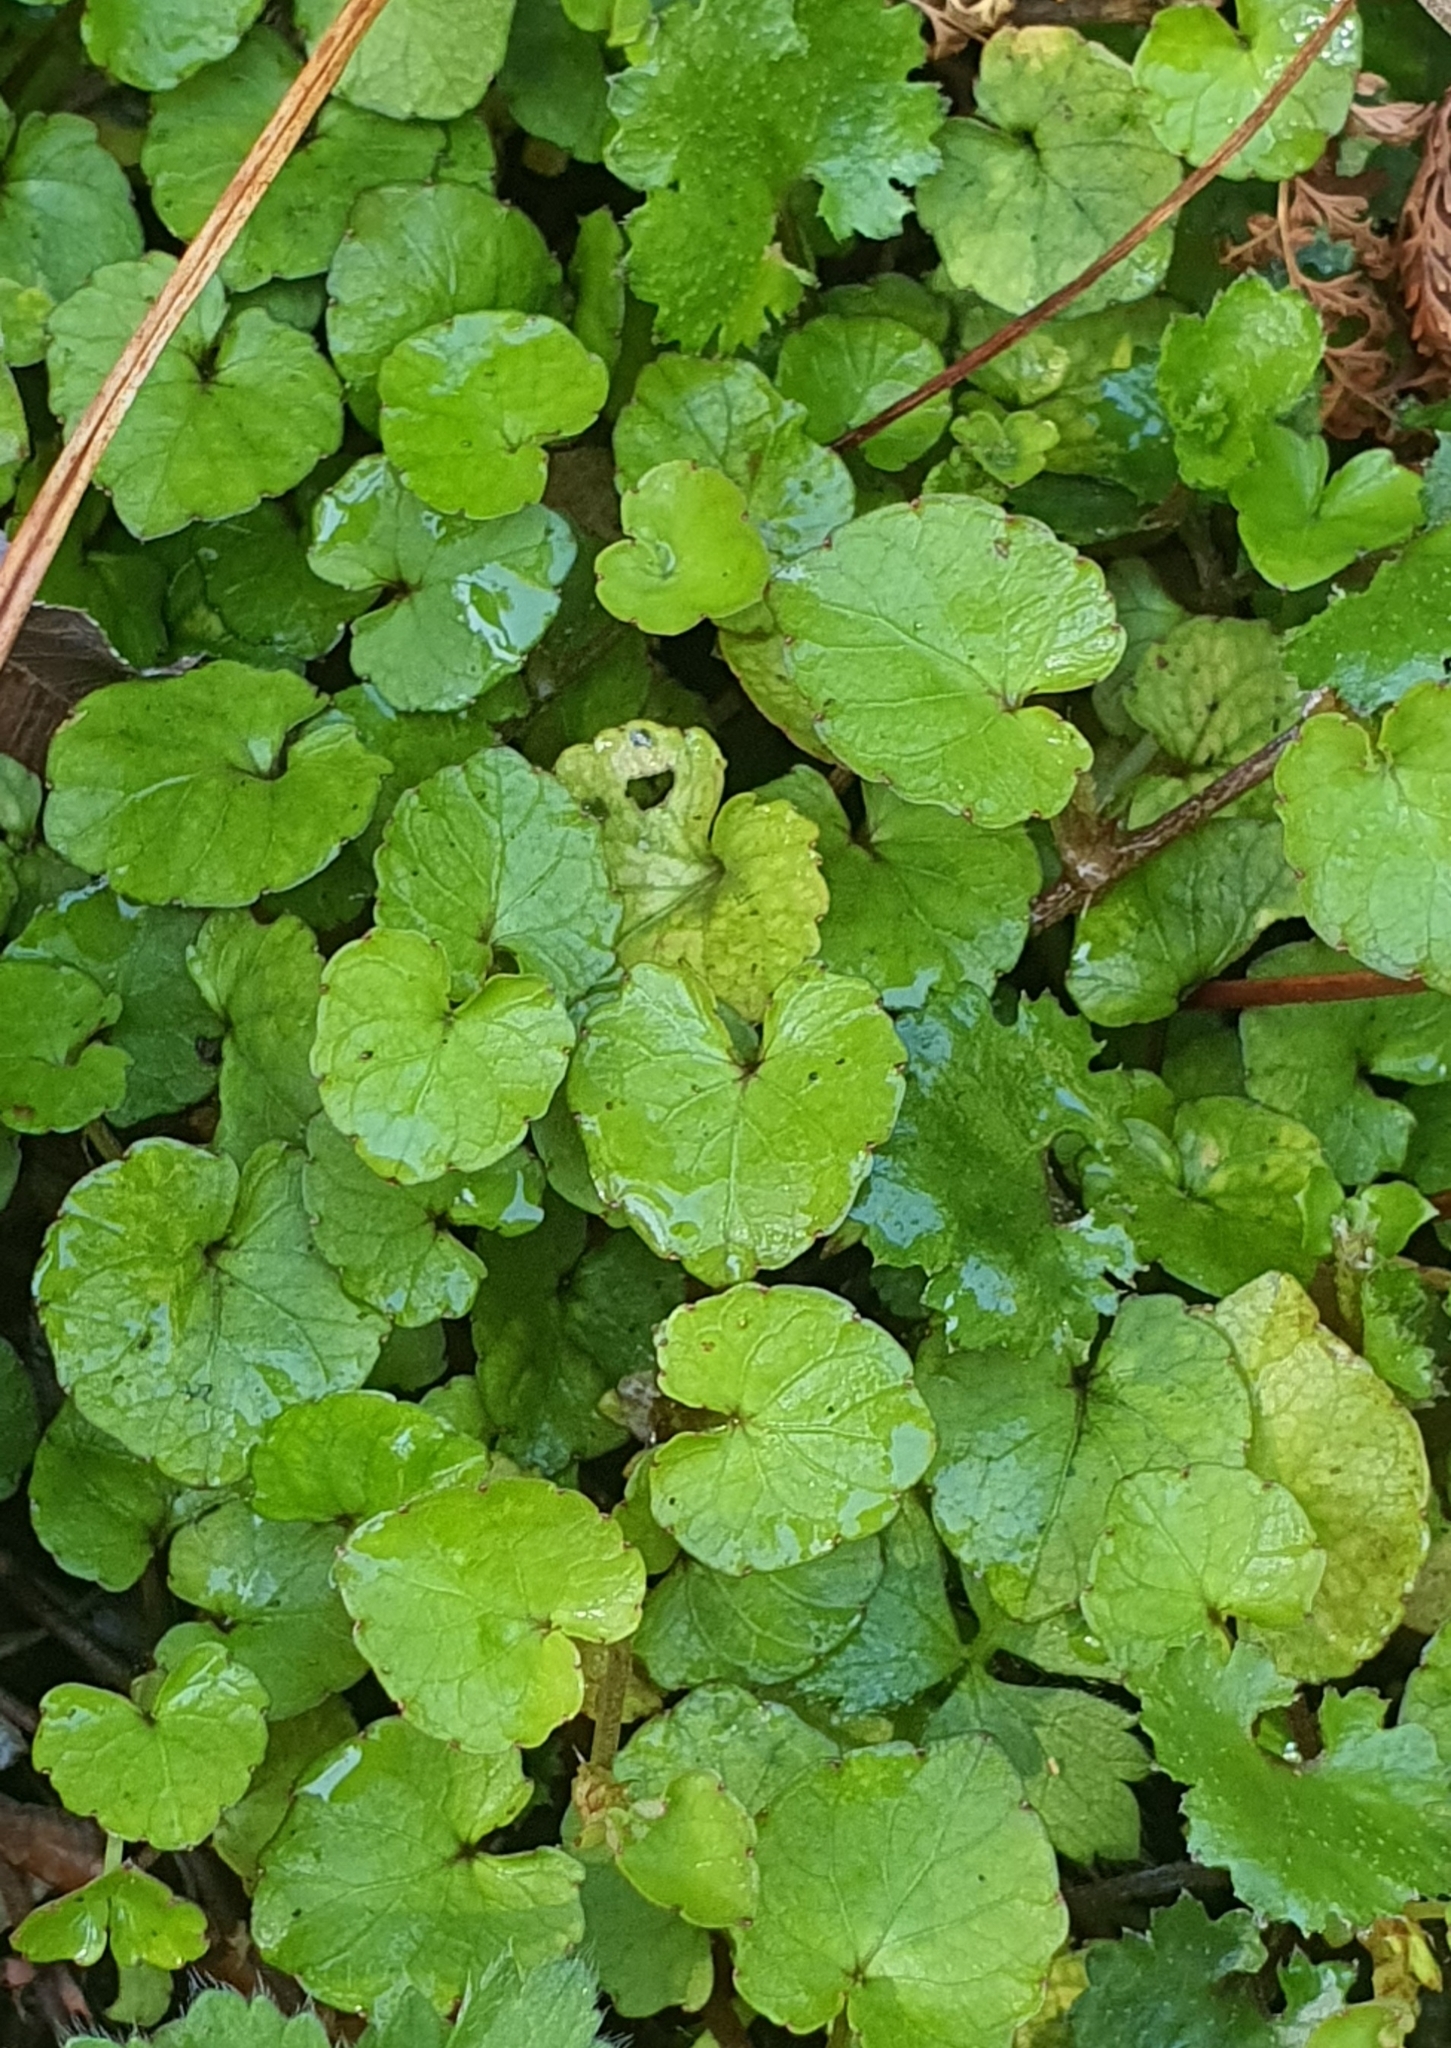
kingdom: Plantae
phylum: Tracheophyta
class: Magnoliopsida
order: Malpighiales
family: Violaceae
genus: Viola
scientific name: Viola filicaulis
